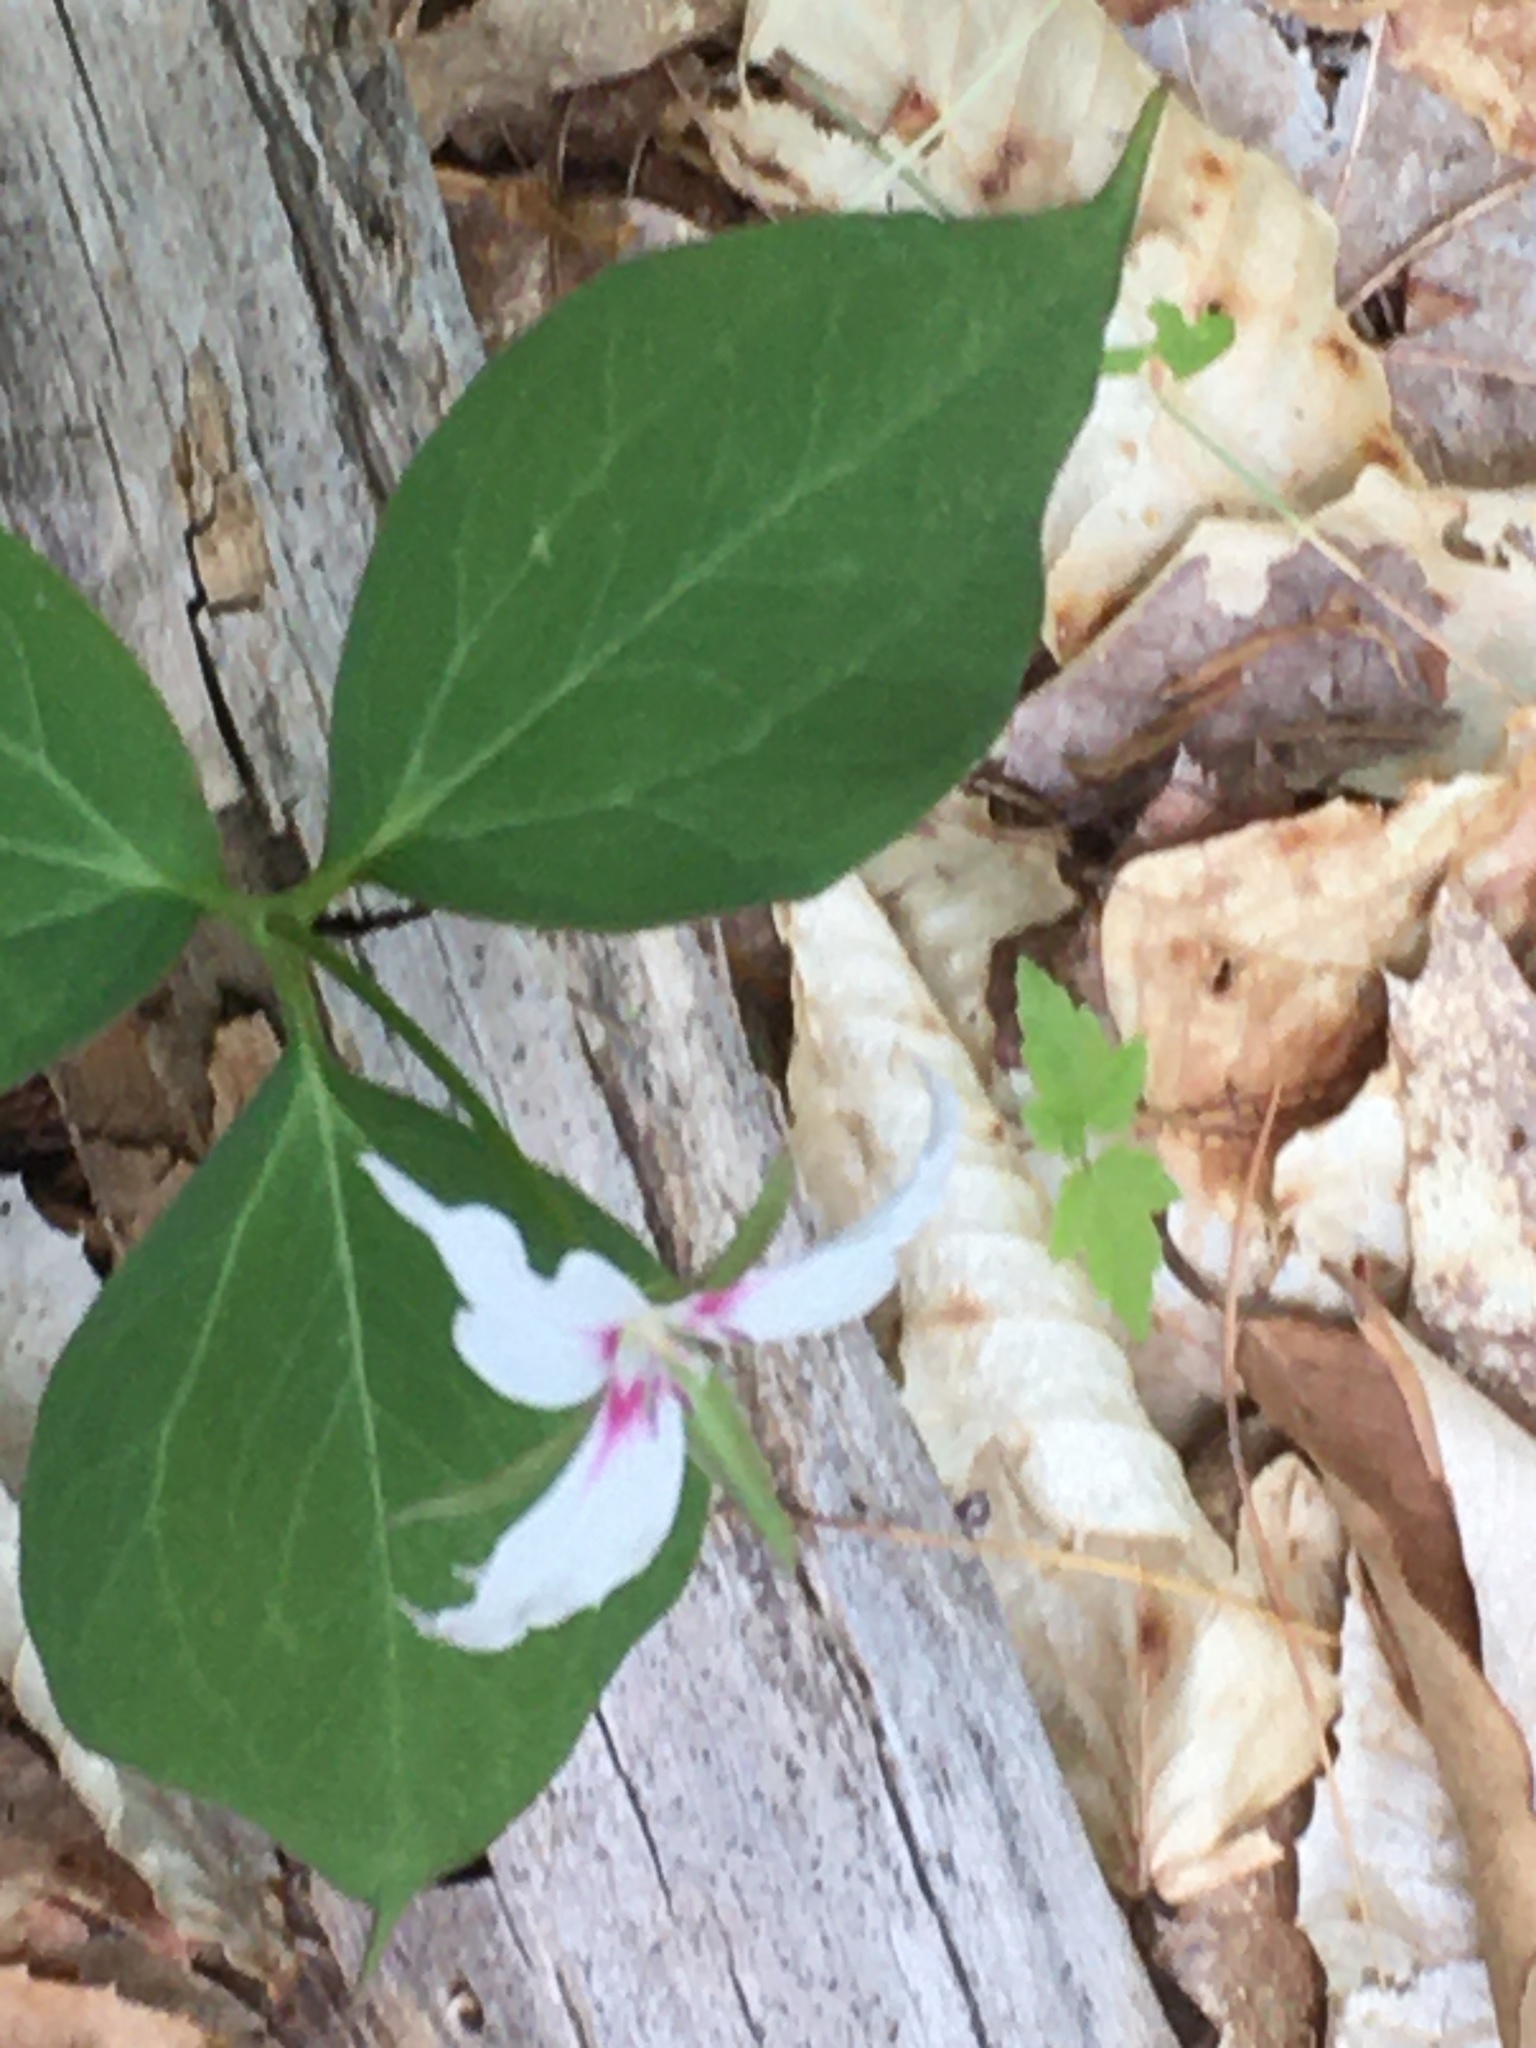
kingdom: Plantae
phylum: Tracheophyta
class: Liliopsida
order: Liliales
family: Melanthiaceae
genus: Trillium
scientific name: Trillium undulatum
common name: Paint trillium
